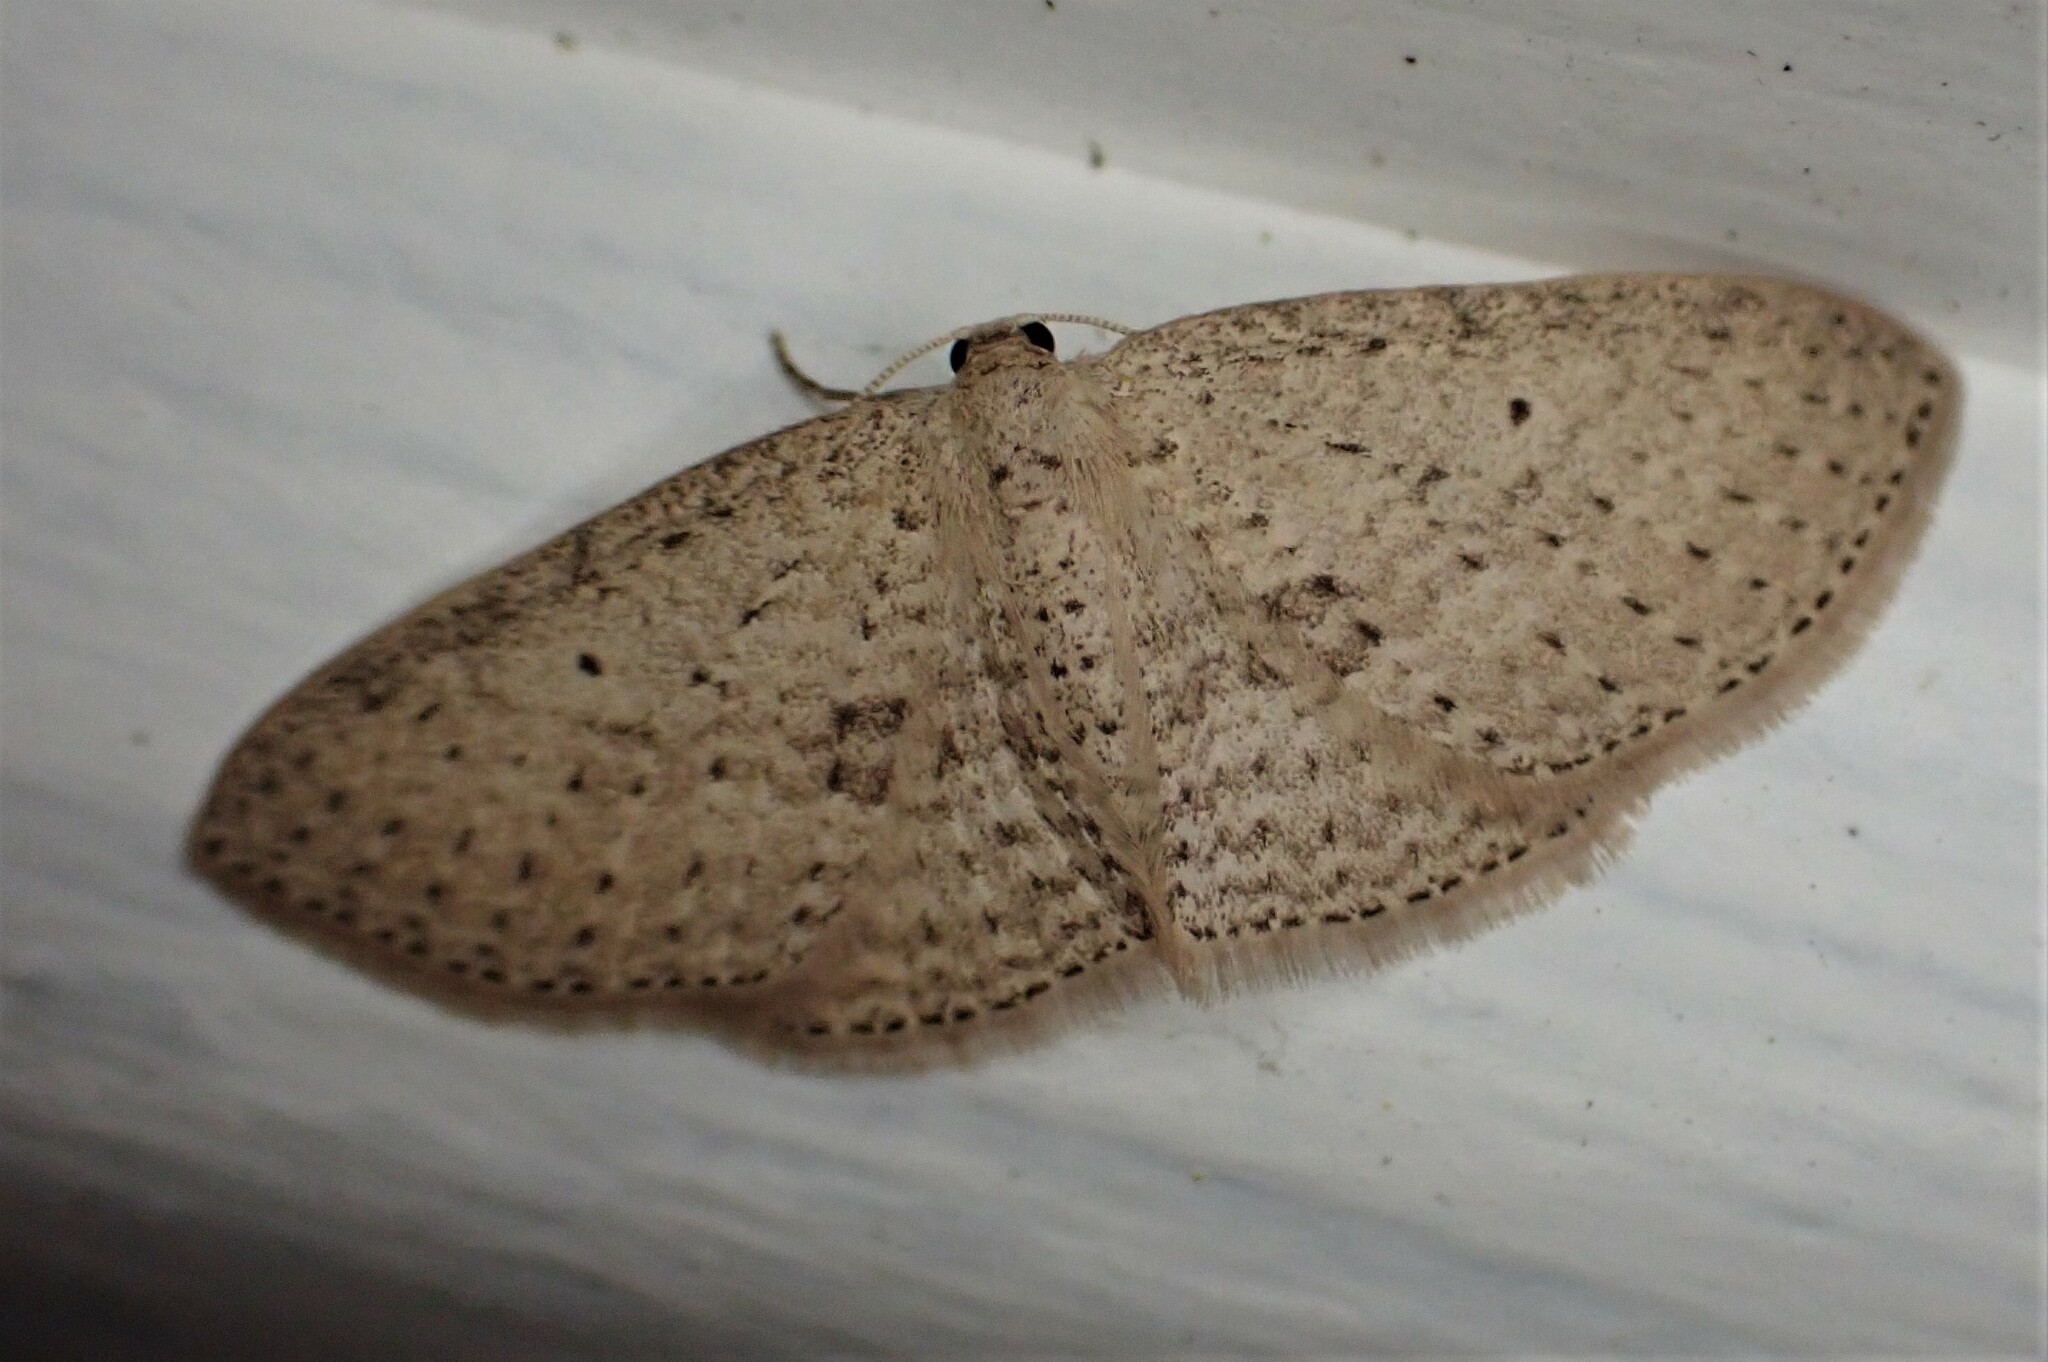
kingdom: Animalia
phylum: Arthropoda
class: Insecta
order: Lepidoptera
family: Geometridae
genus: Poecilasthena
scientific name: Poecilasthena schistaria
